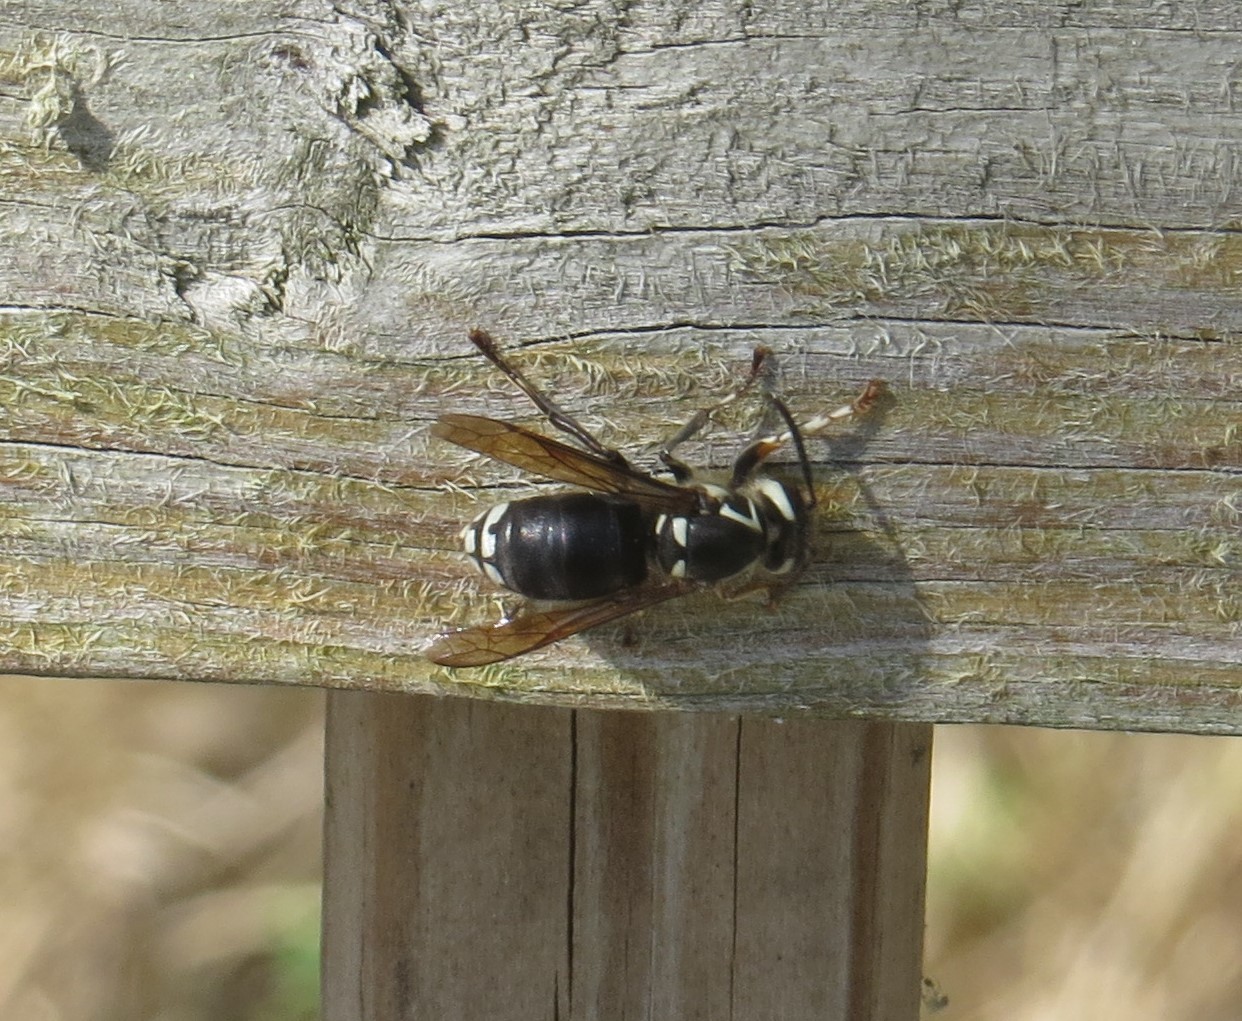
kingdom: Animalia
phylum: Arthropoda
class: Insecta
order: Hymenoptera
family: Vespidae
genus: Dolichovespula
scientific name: Dolichovespula maculata
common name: Bald-faced hornet
